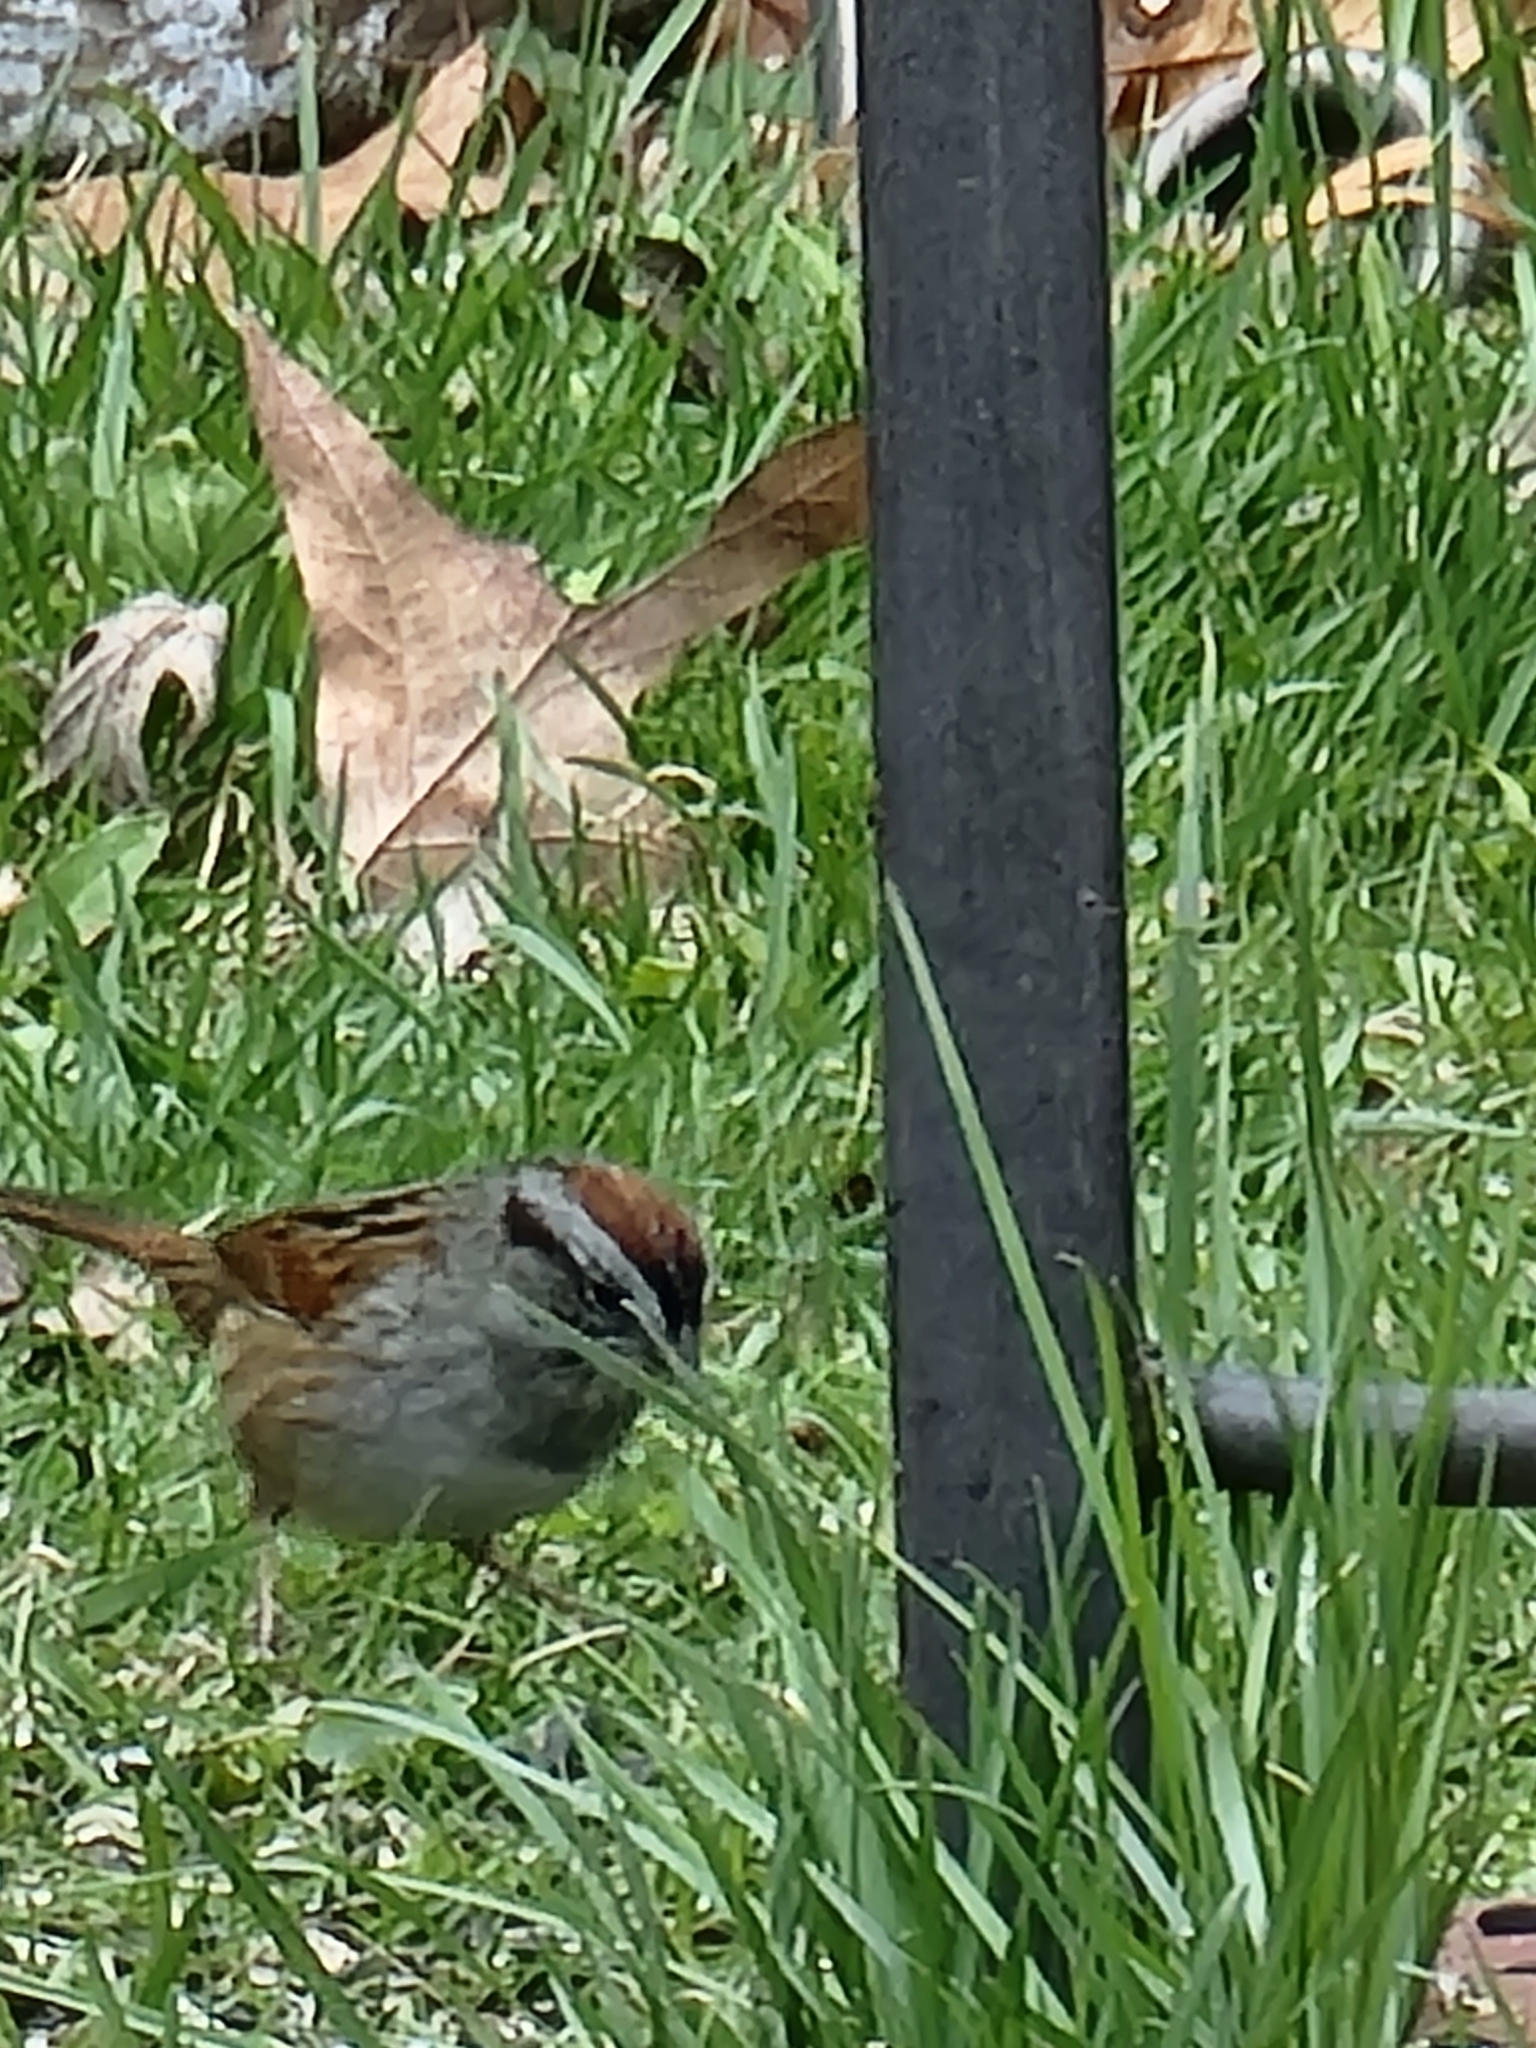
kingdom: Animalia
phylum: Chordata
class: Aves
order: Passeriformes
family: Passerellidae
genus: Melospiza
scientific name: Melospiza georgiana
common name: Swamp sparrow
